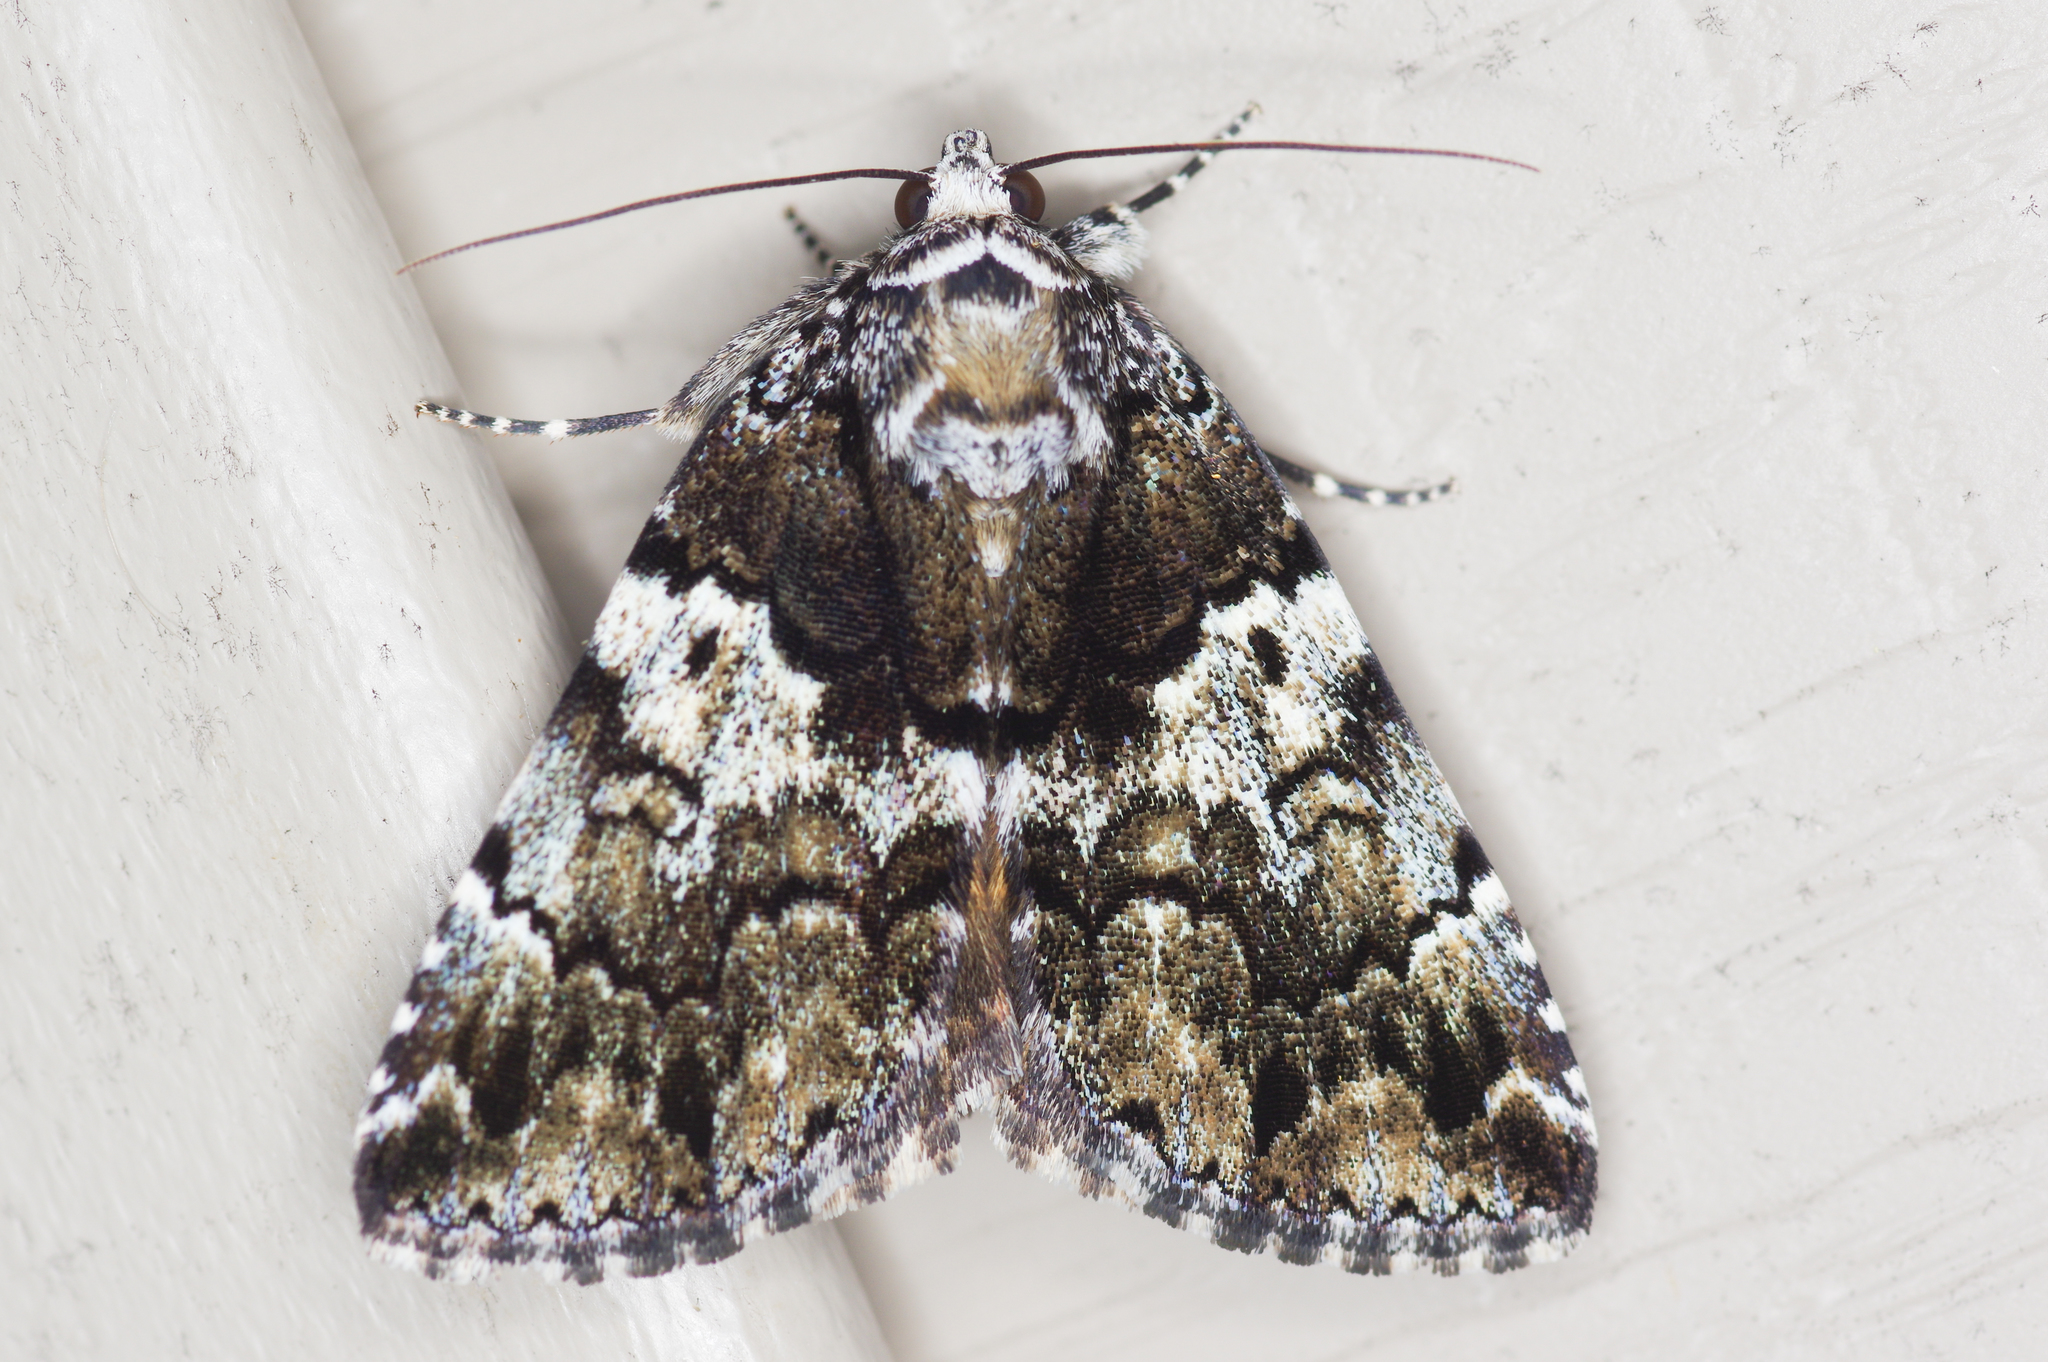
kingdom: Animalia
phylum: Arthropoda
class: Insecta
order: Lepidoptera
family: Erebidae
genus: Allotria
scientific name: Allotria elonympha
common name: False underwing
